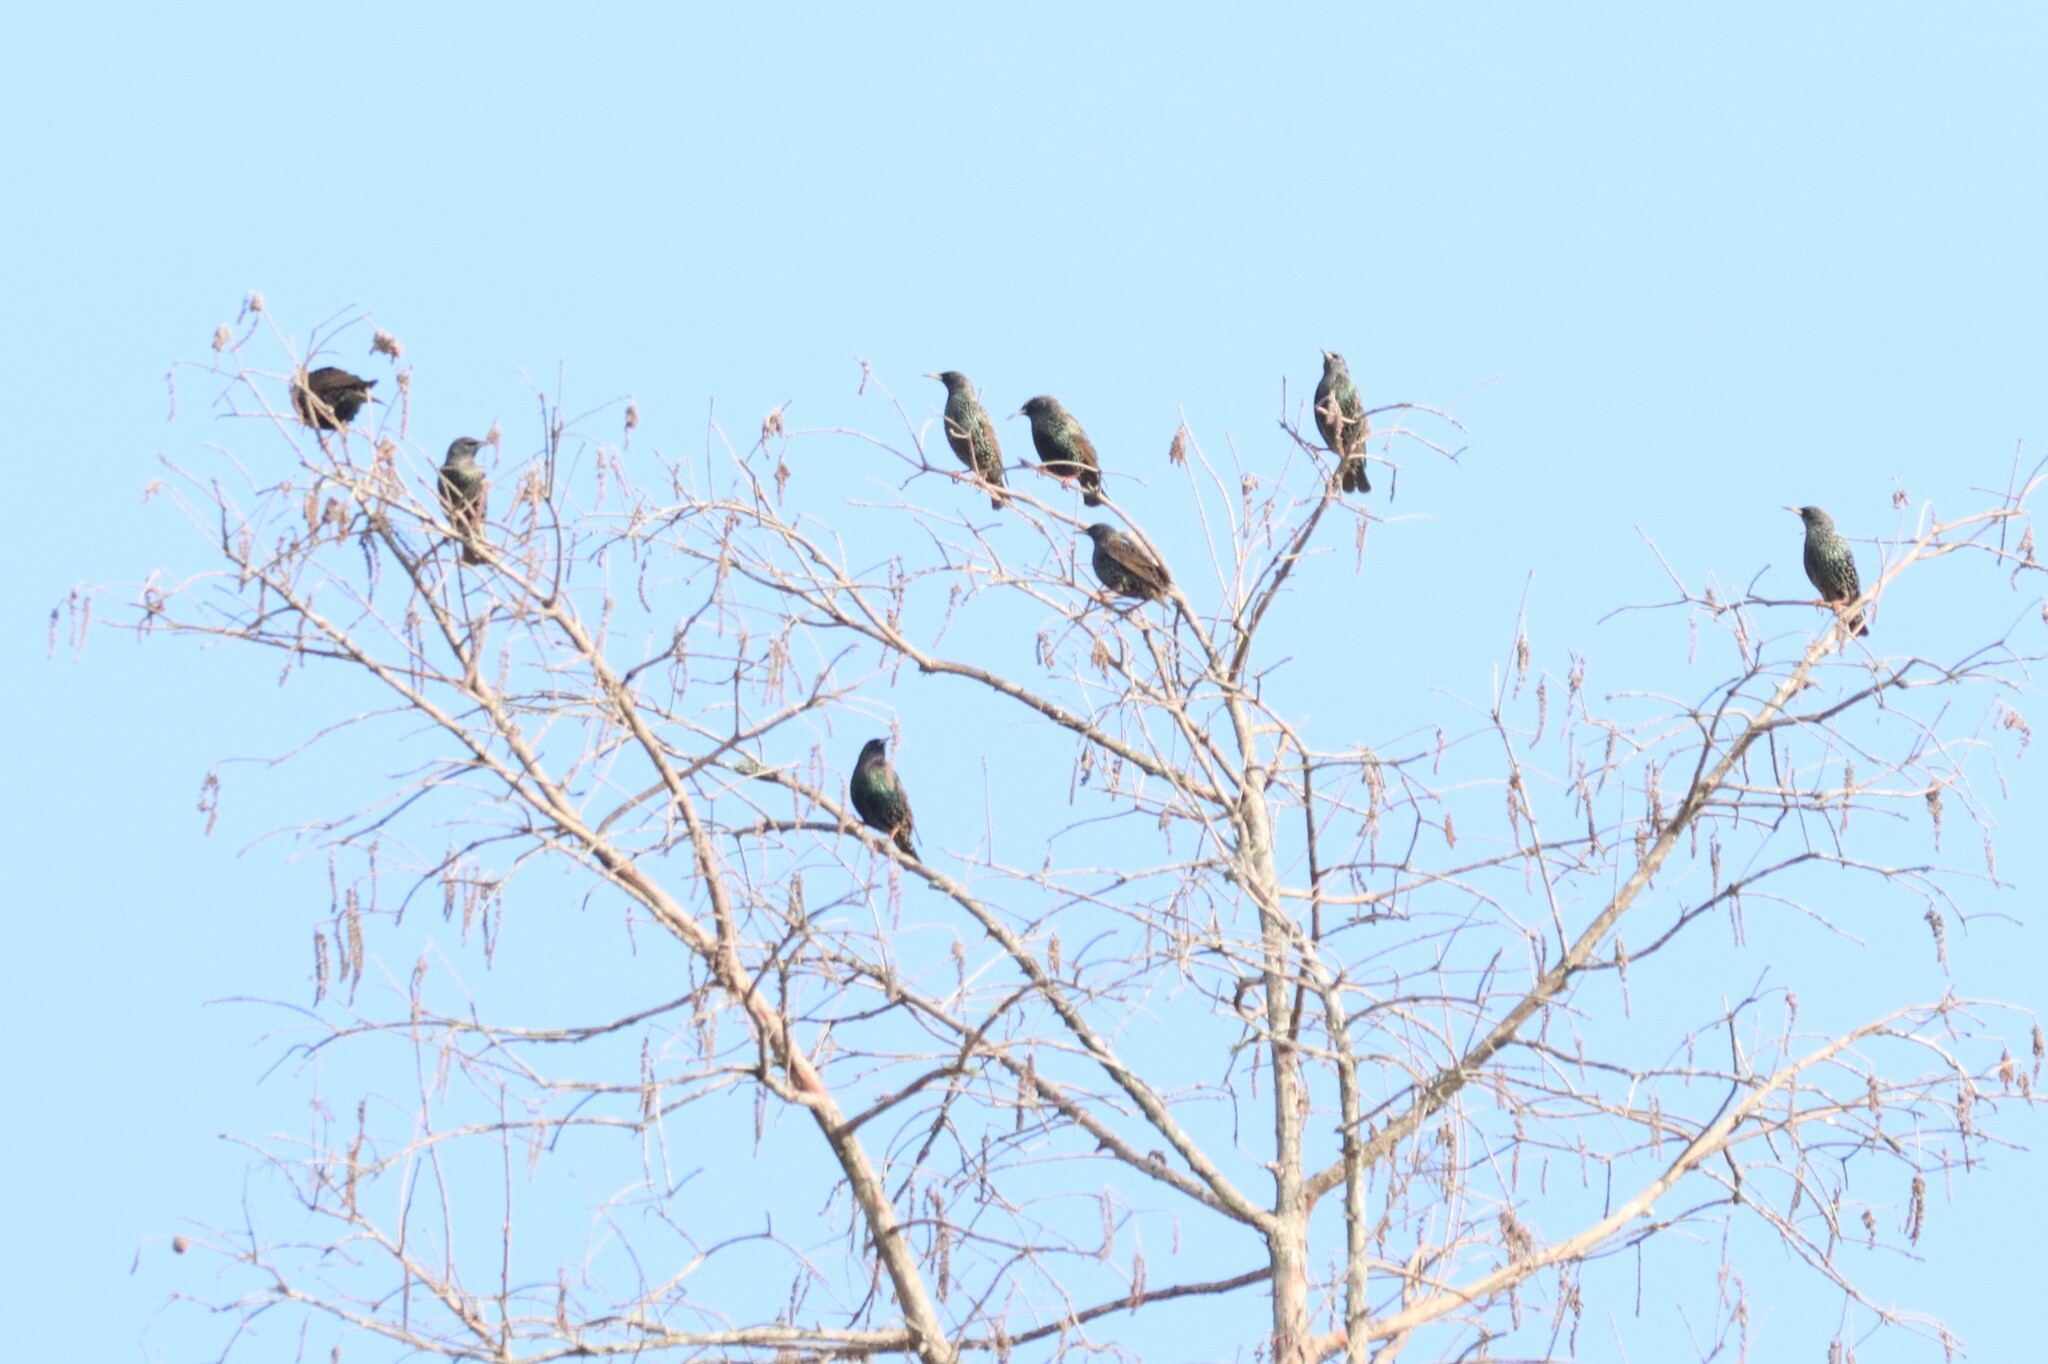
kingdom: Animalia
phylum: Chordata
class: Aves
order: Passeriformes
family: Sturnidae
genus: Sturnus
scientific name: Sturnus vulgaris
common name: Common starling
